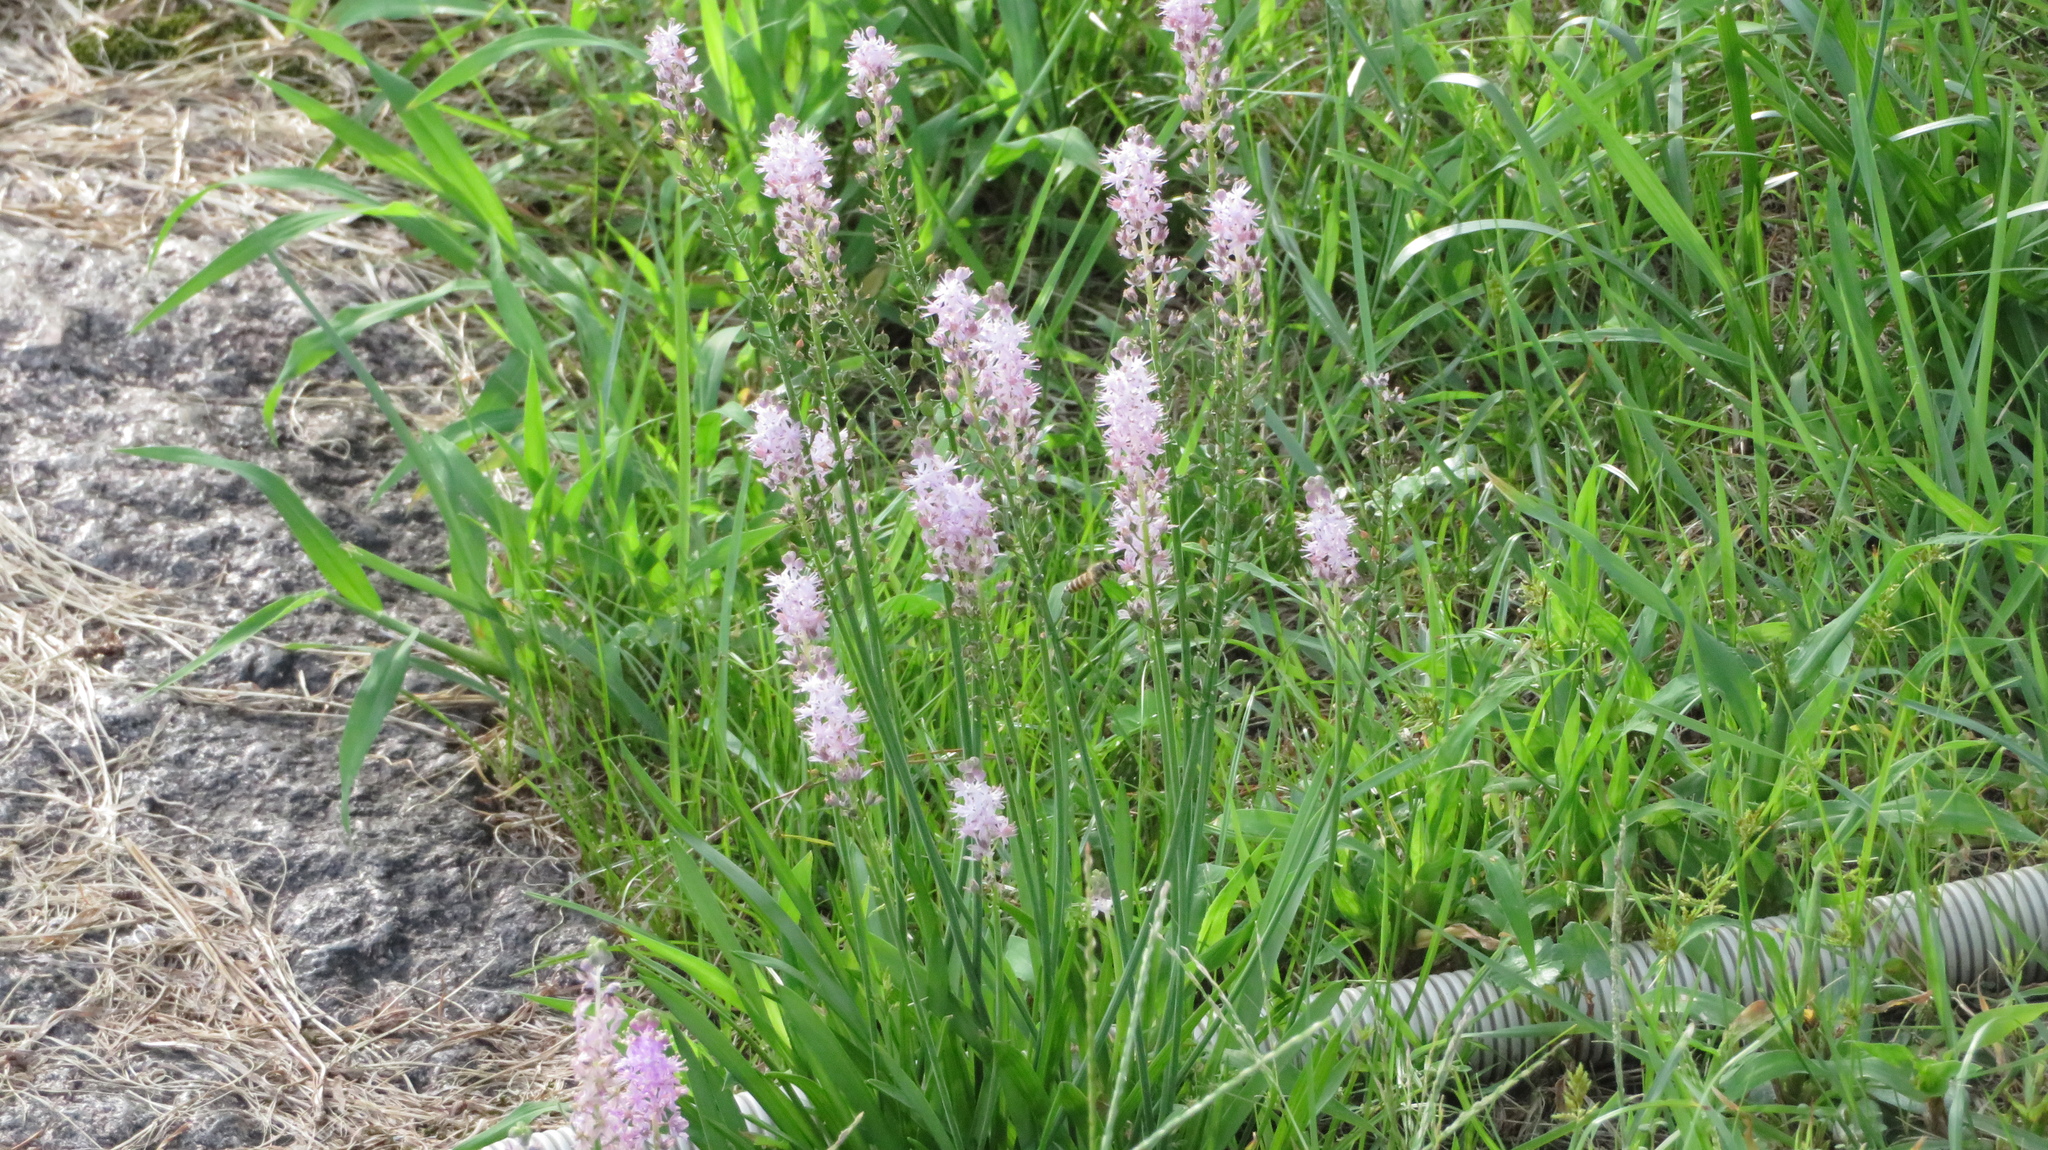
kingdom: Plantae
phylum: Tracheophyta
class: Liliopsida
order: Asparagales
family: Asparagaceae
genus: Barnardia
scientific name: Barnardia japonica
